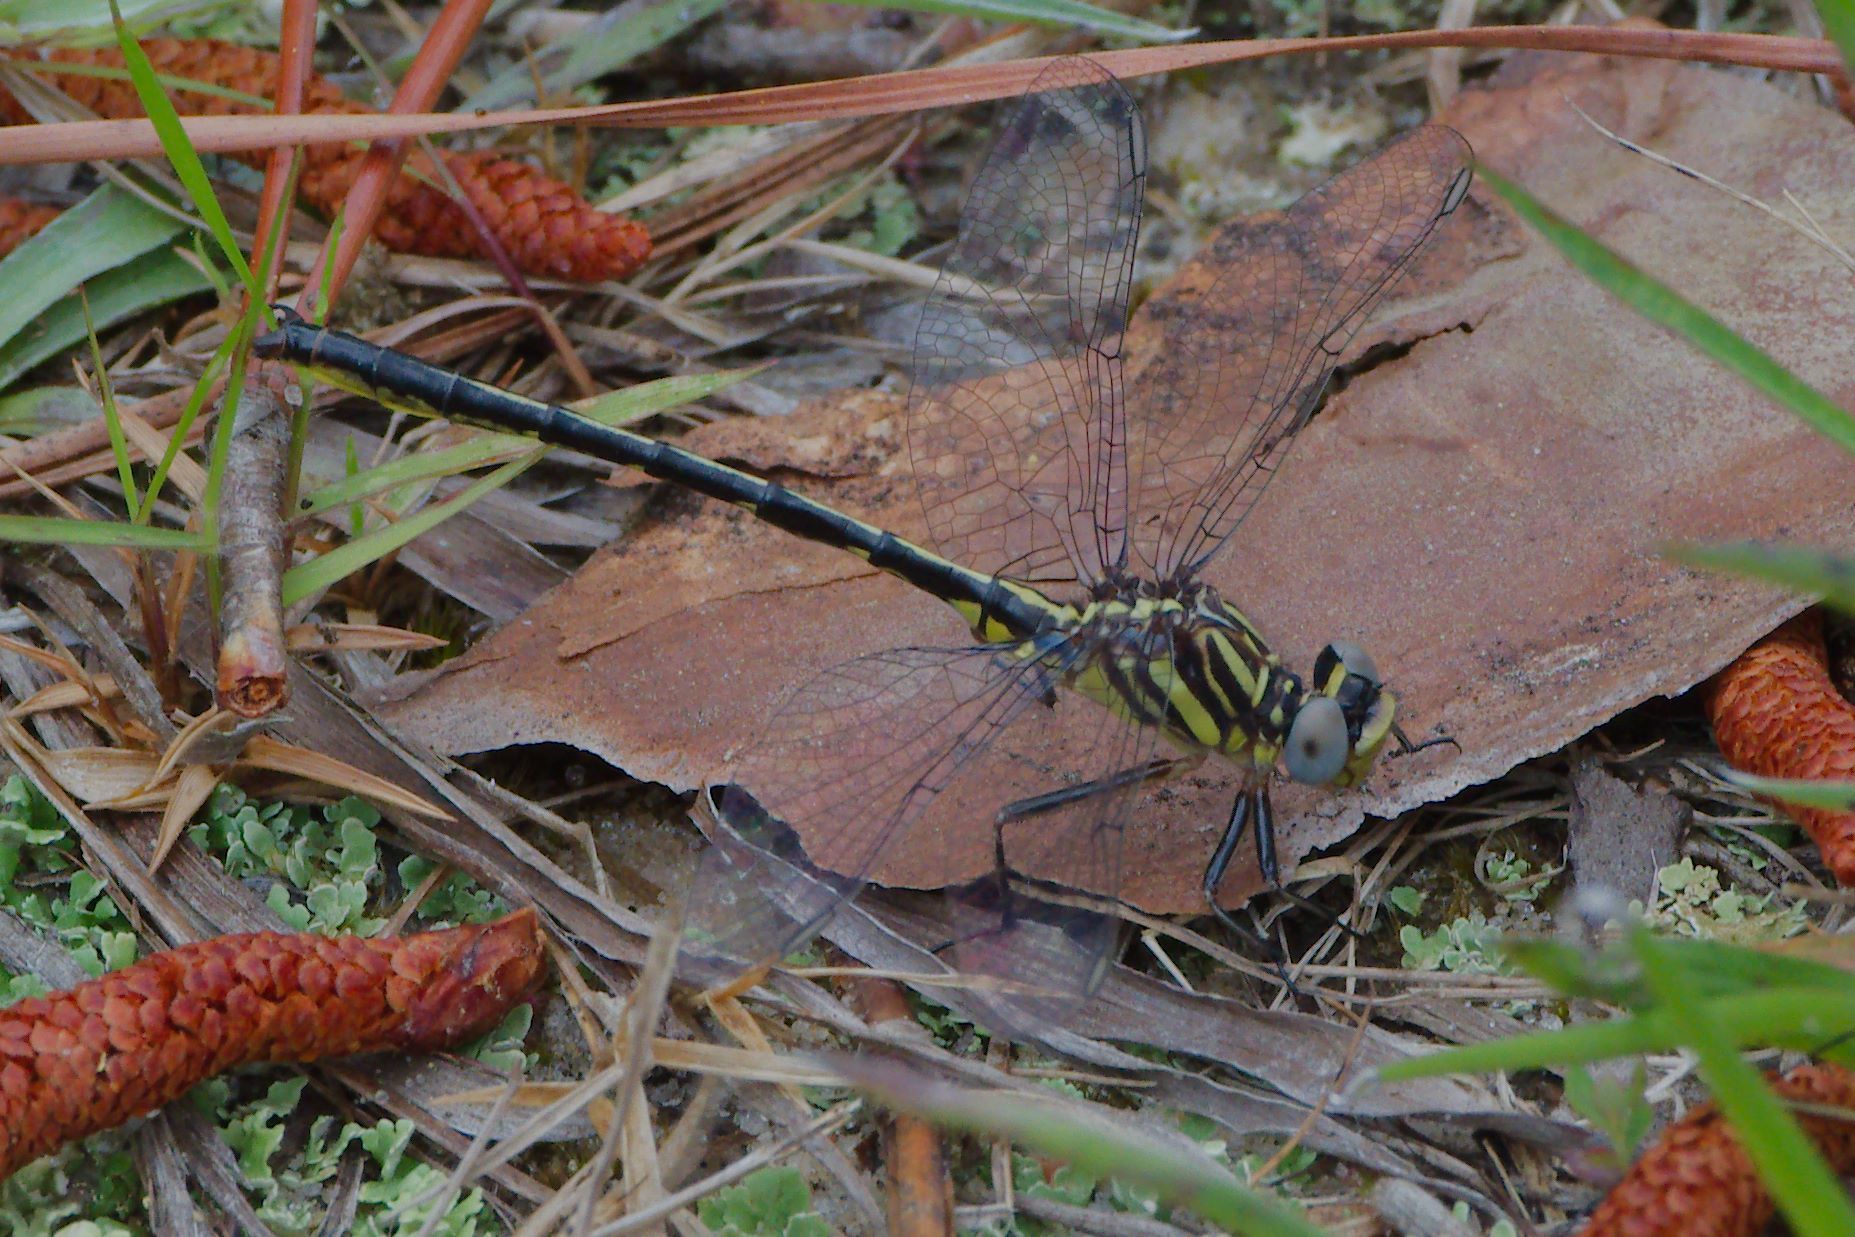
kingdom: Animalia
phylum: Arthropoda
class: Insecta
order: Odonata
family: Gomphidae
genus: Phanogomphus
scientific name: Phanogomphus hodgesi
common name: Hodges' clubtail
